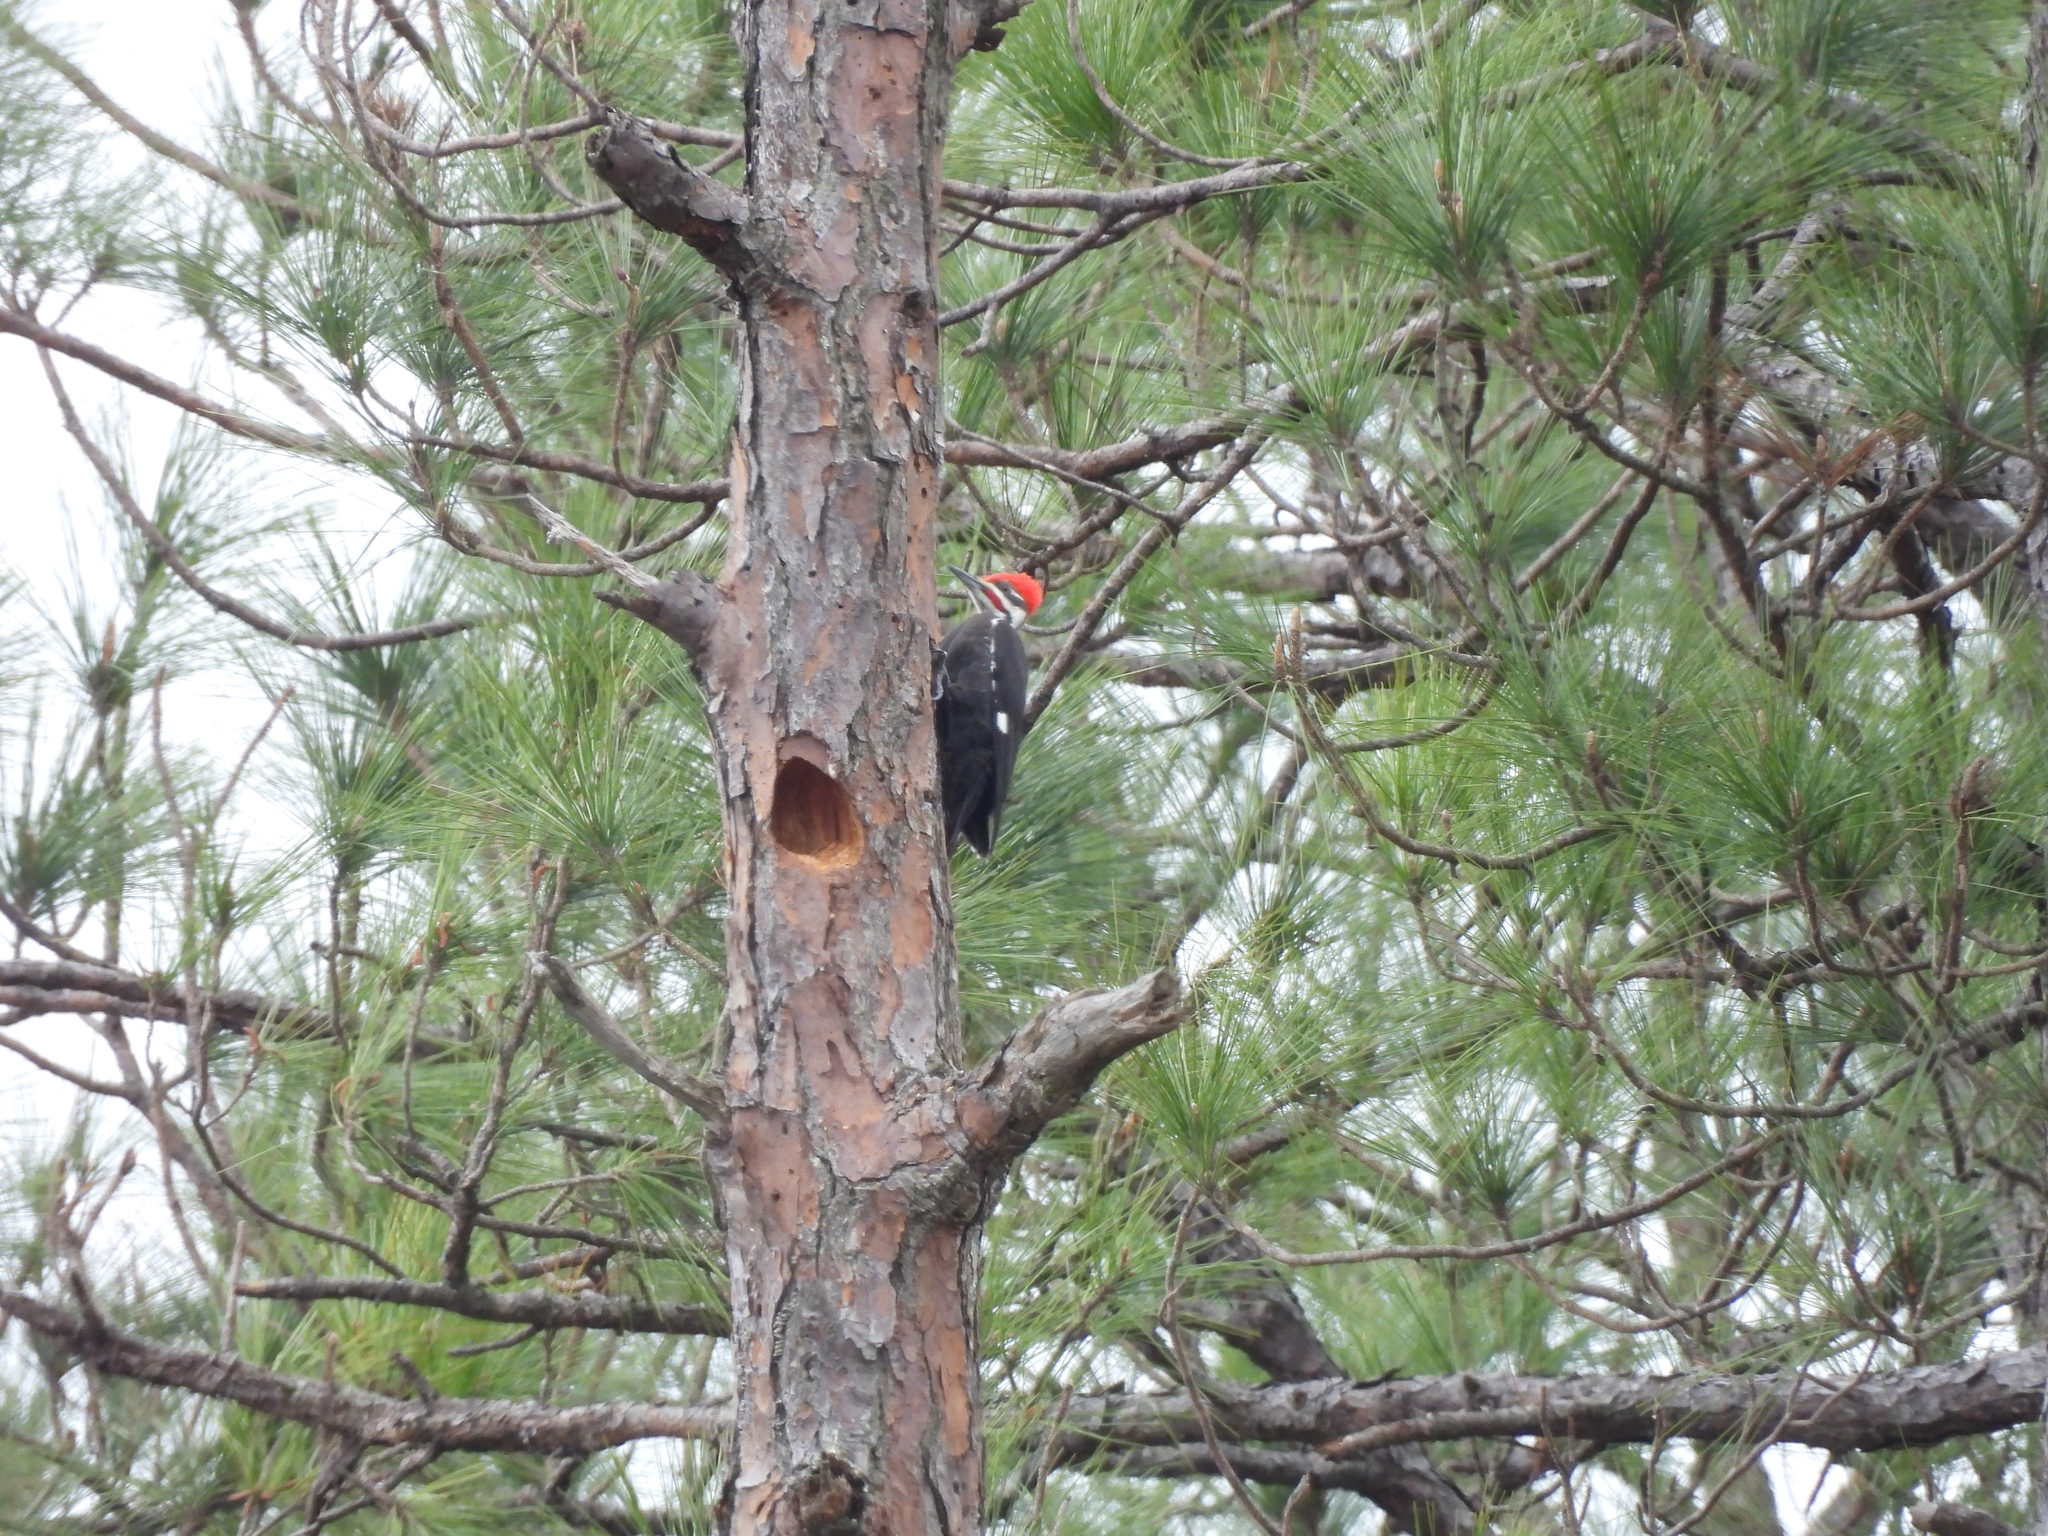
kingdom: Animalia
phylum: Chordata
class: Aves
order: Piciformes
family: Picidae
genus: Dryocopus
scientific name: Dryocopus pileatus
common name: Pileated woodpecker
